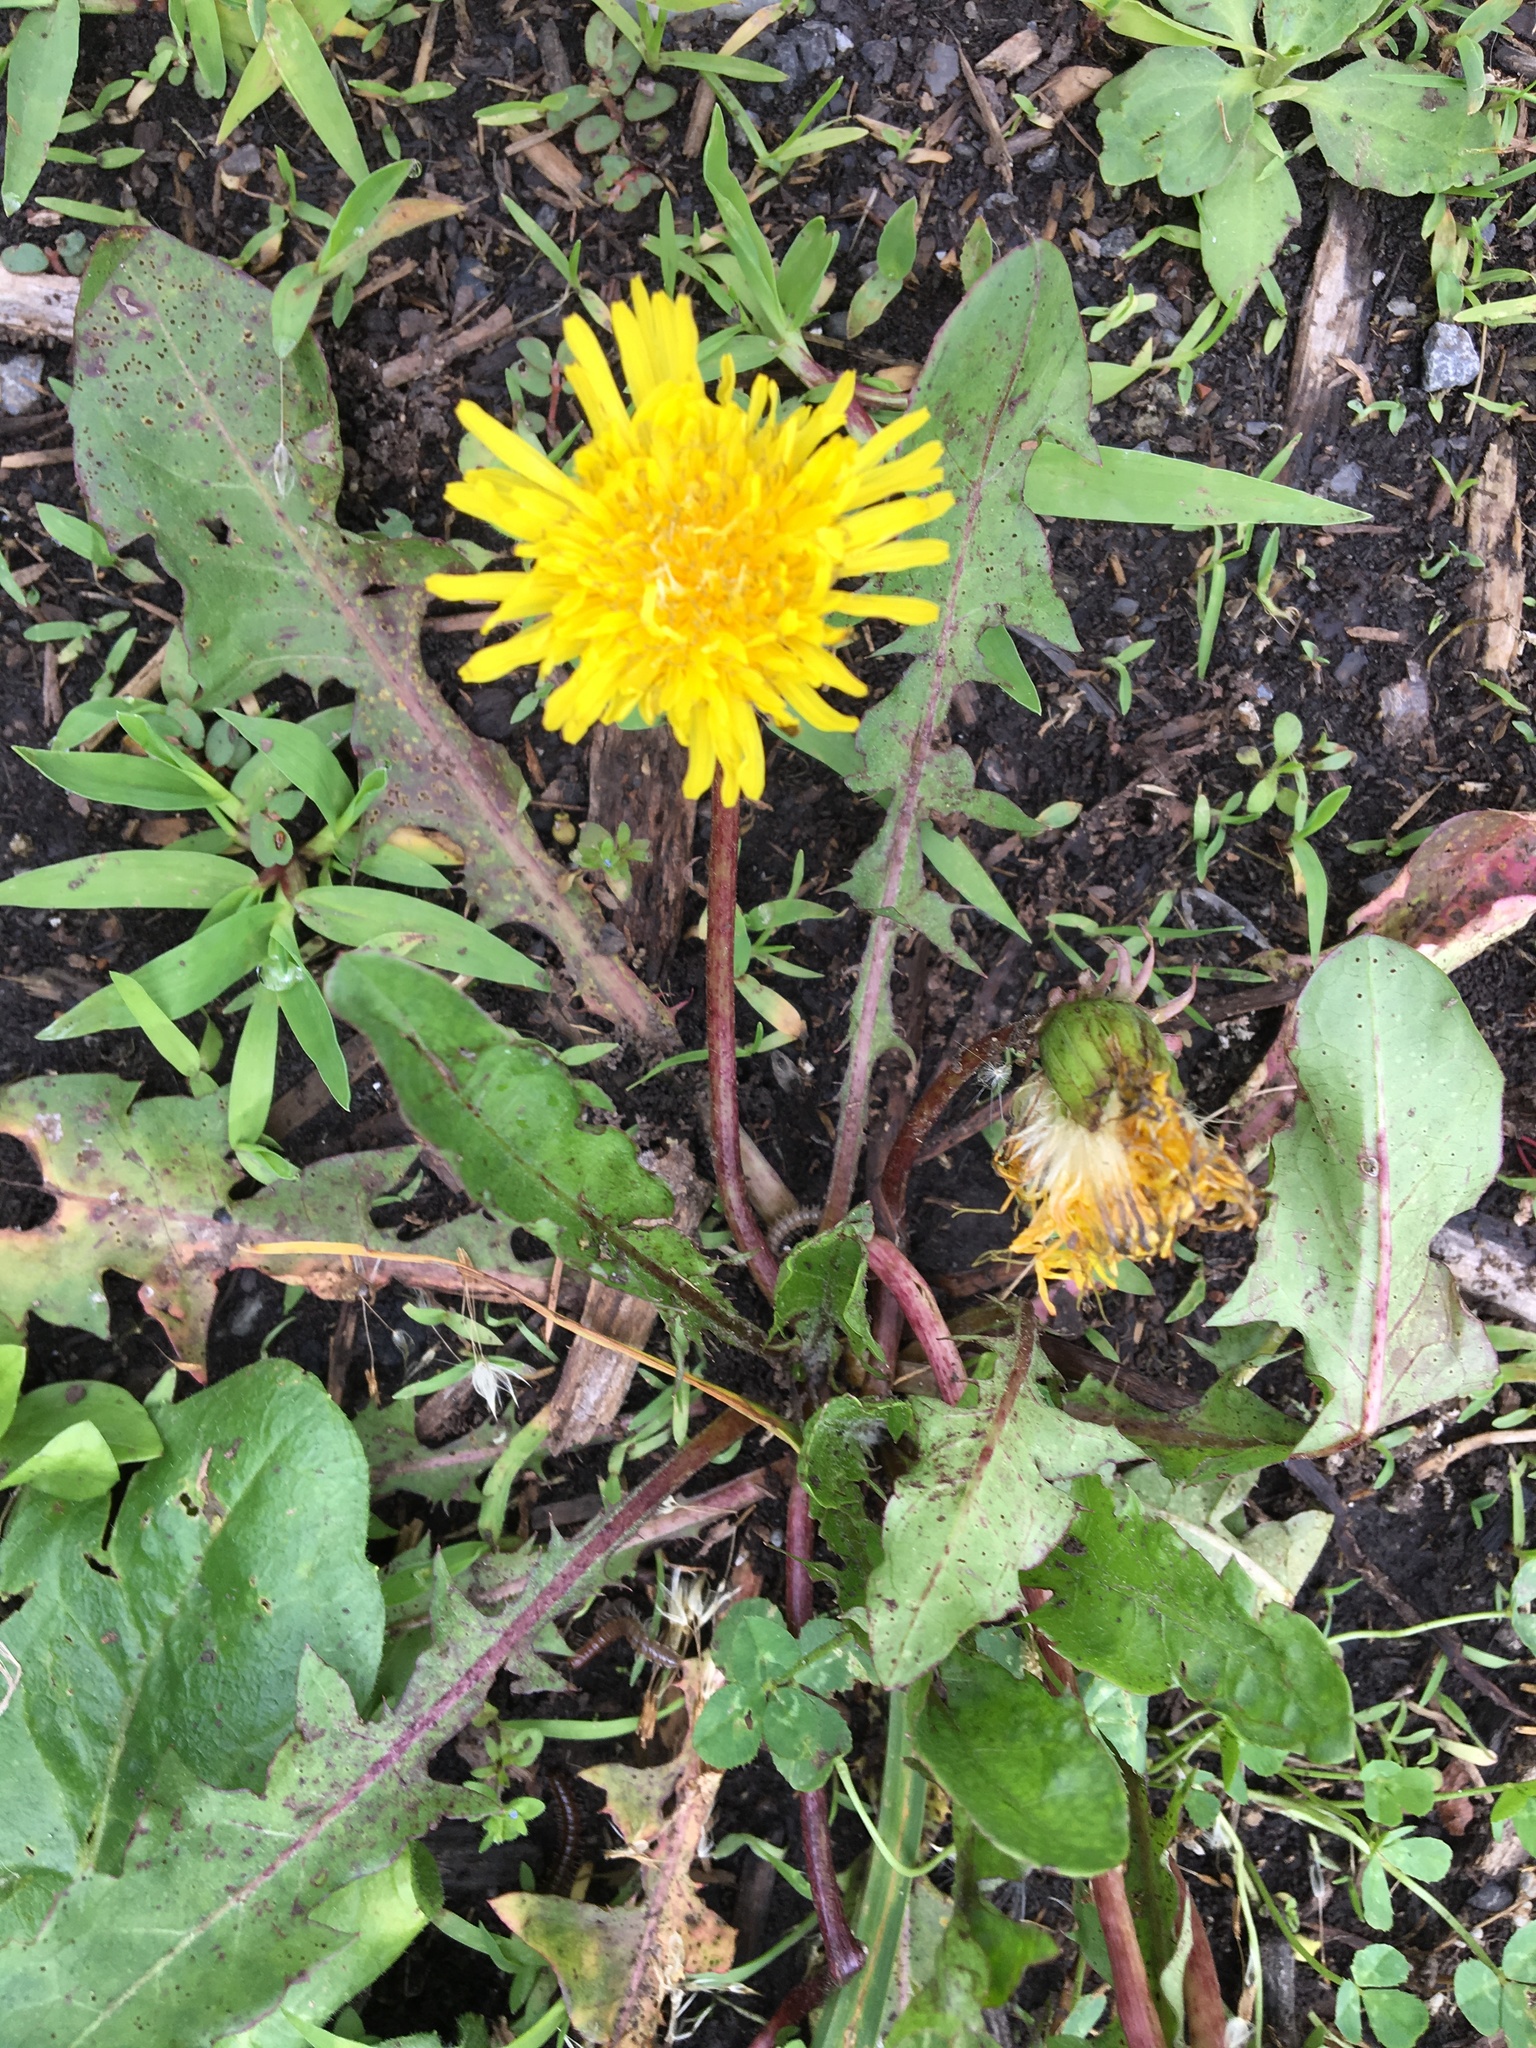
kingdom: Plantae
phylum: Tracheophyta
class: Magnoliopsida
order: Asterales
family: Asteraceae
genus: Taraxacum
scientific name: Taraxacum officinale
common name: Common dandelion
